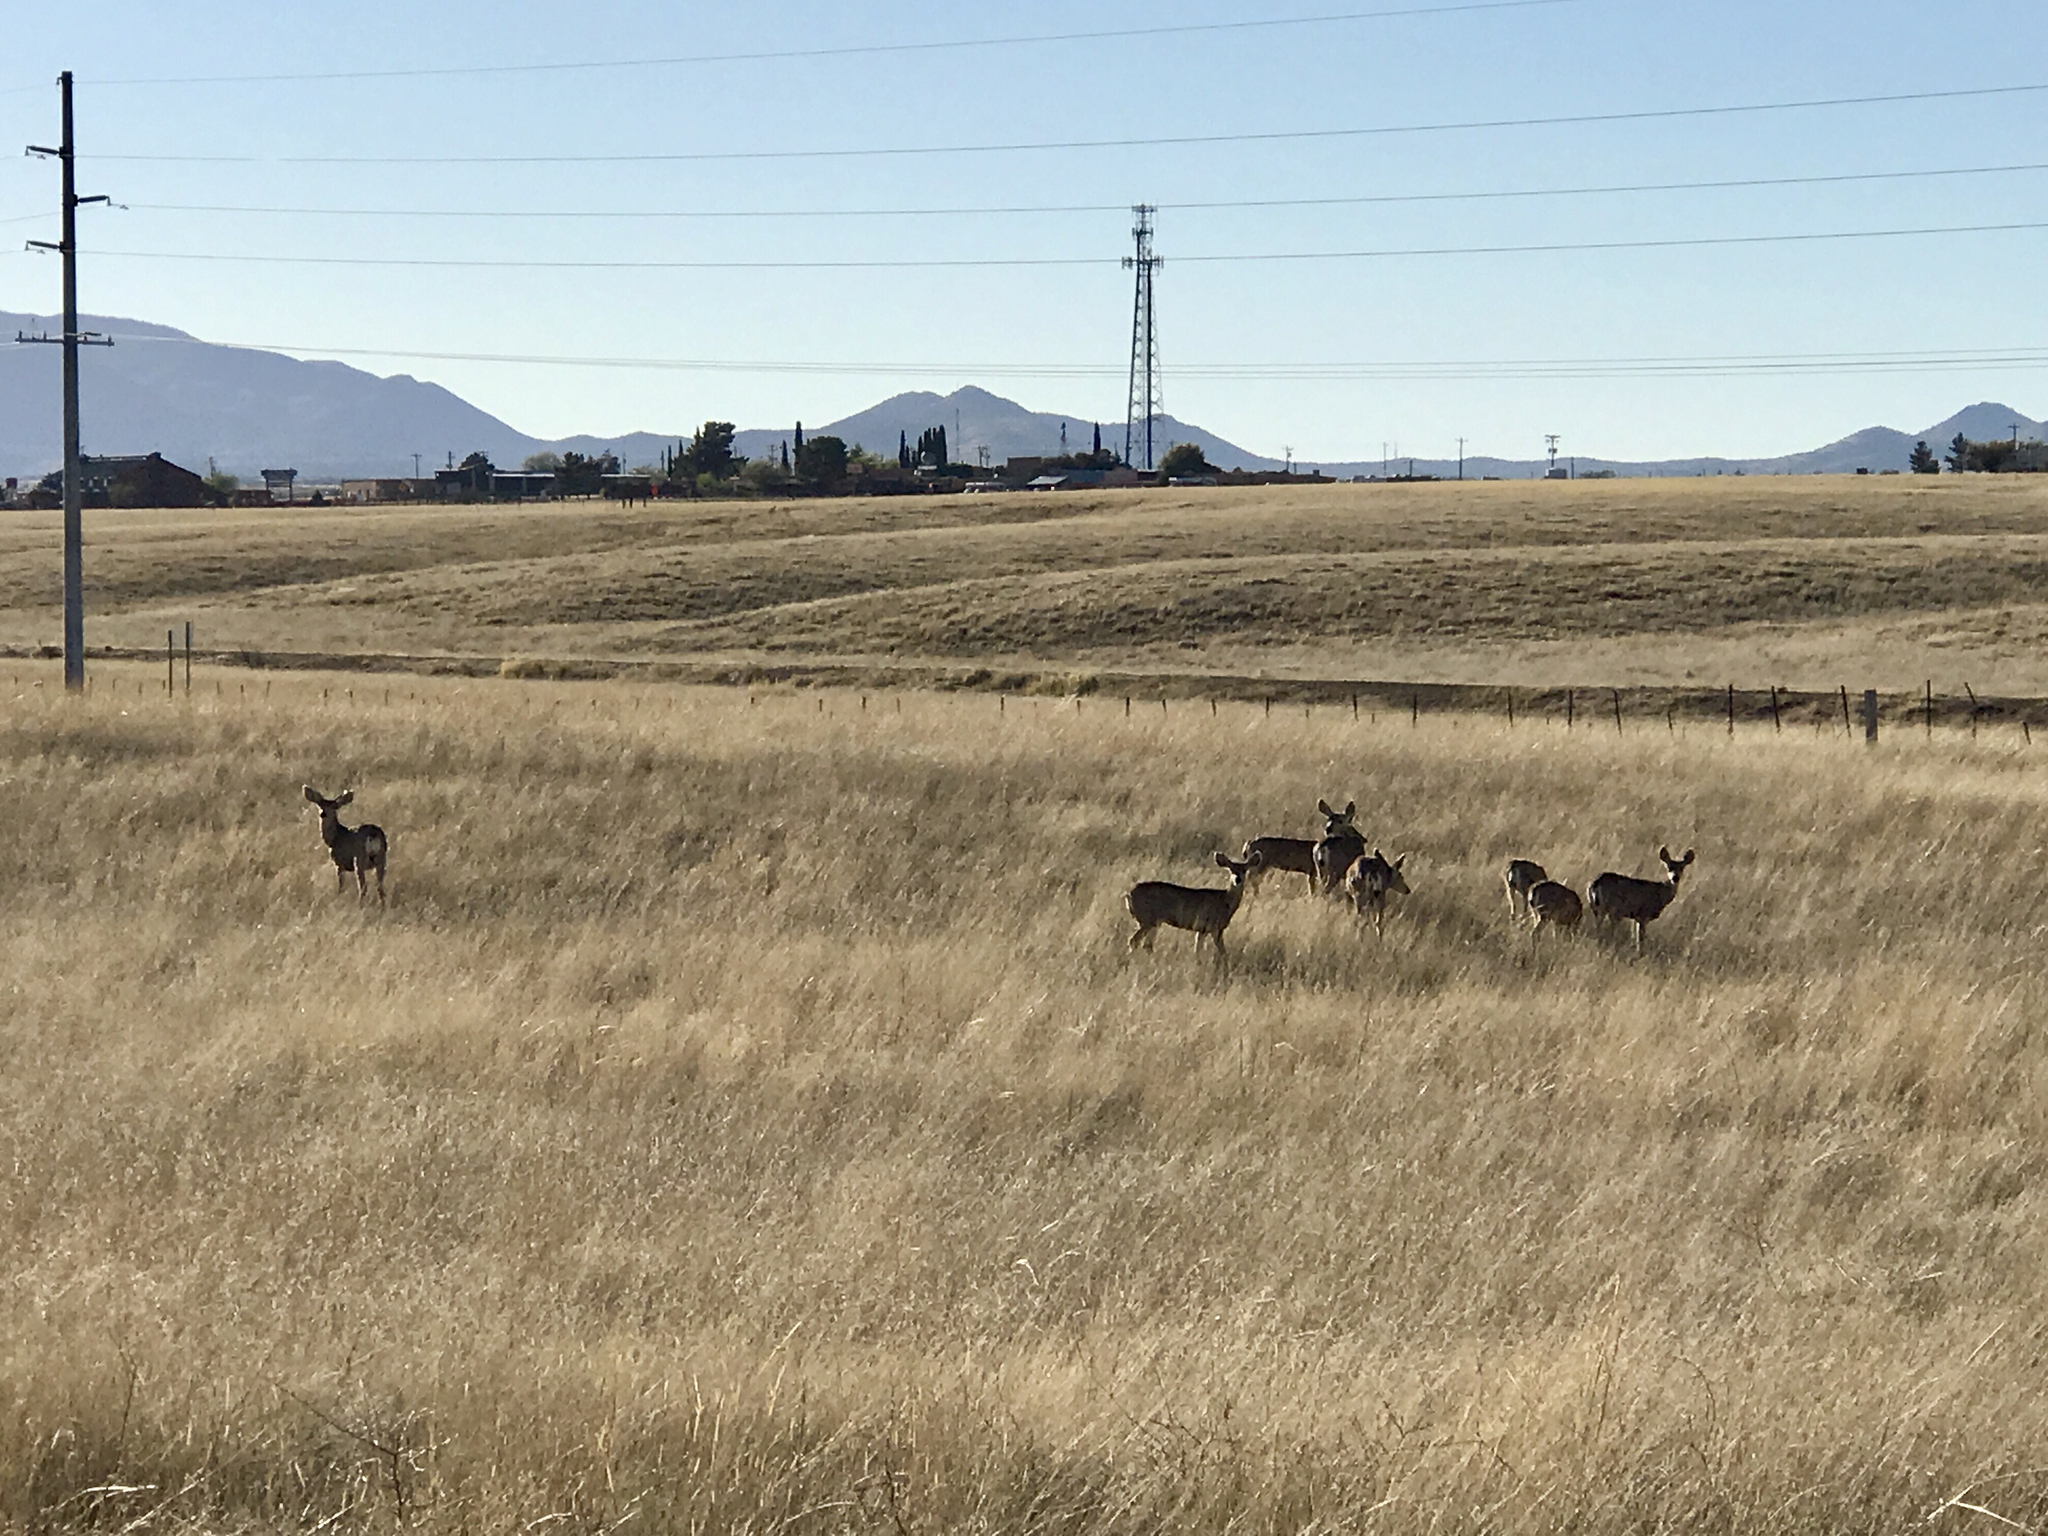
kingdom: Animalia
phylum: Chordata
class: Mammalia
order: Artiodactyla
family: Cervidae
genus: Odocoileus
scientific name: Odocoileus hemionus
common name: Mule deer
